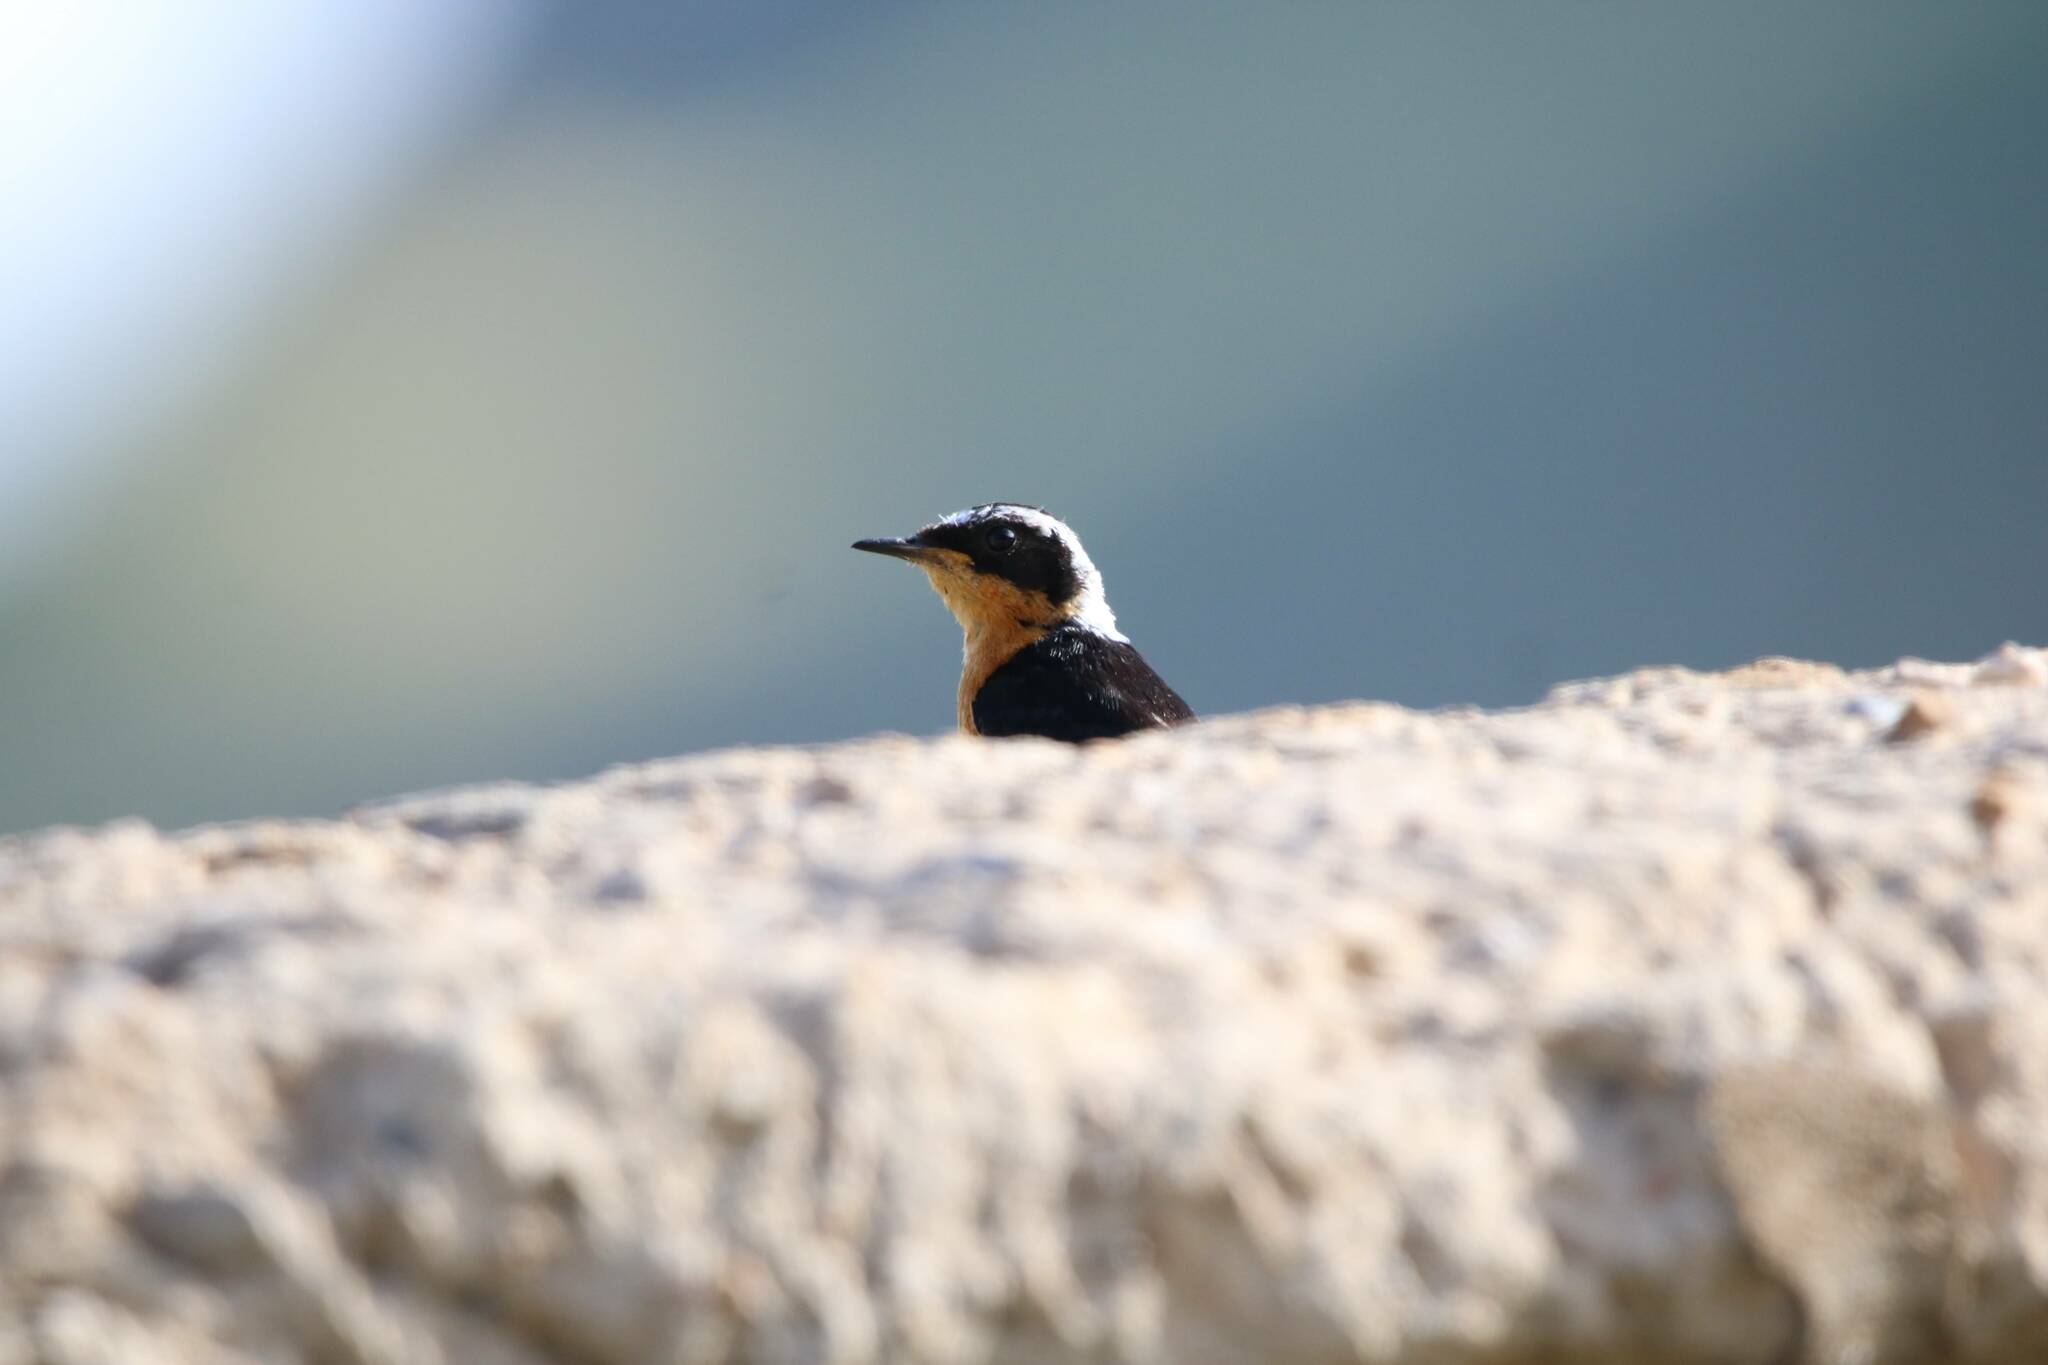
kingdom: Animalia
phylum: Chordata
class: Aves
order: Passeriformes
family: Muscicapidae
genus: Phoenicurus
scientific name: Phoenicurus moussieri
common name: Moussier's redstart
